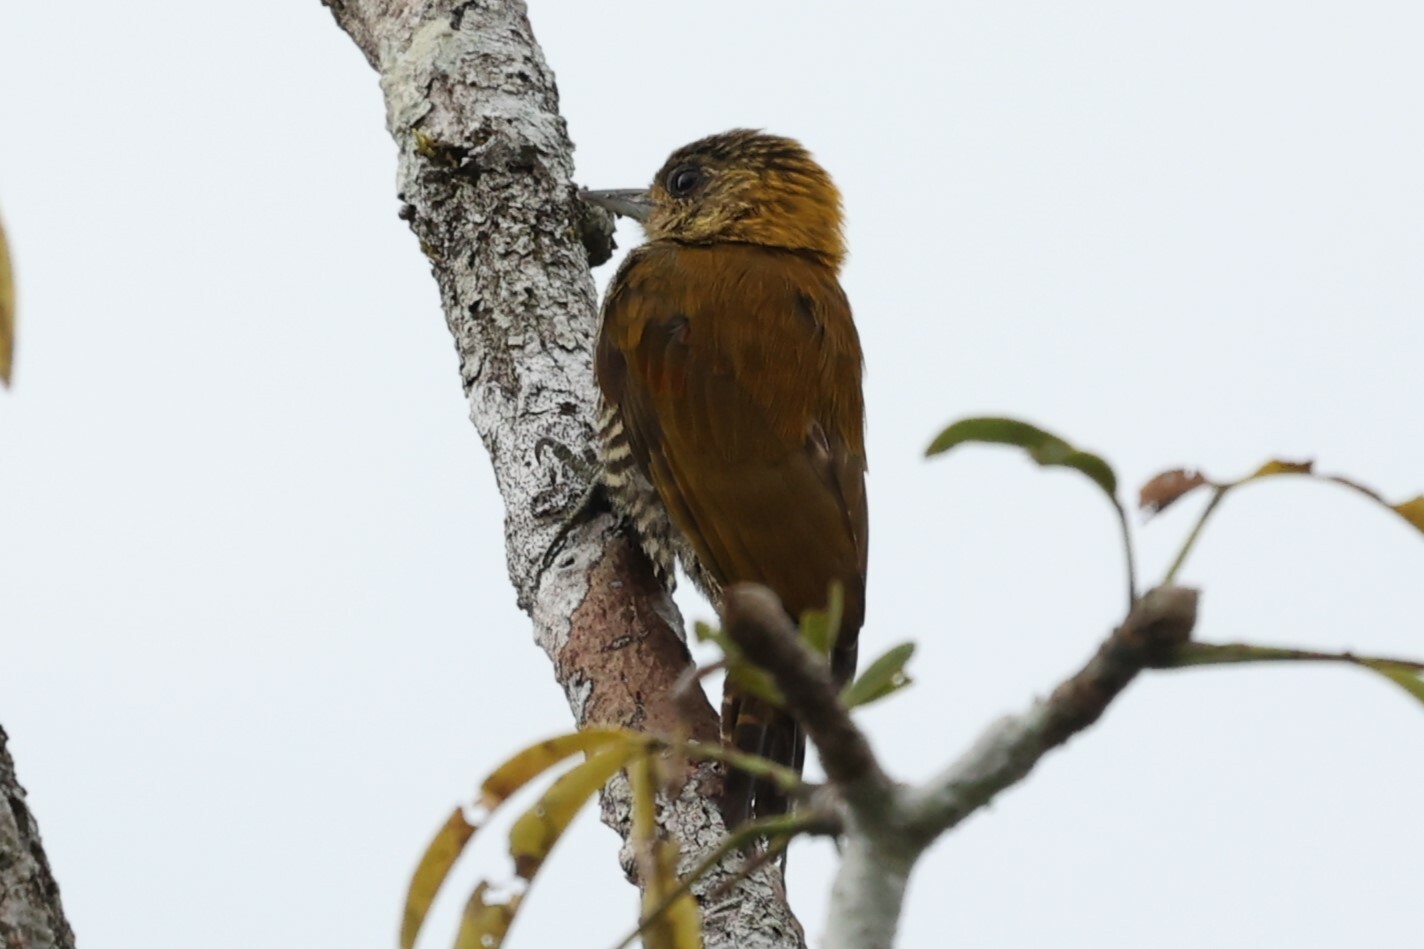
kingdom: Animalia
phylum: Chordata
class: Aves
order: Piciformes
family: Picidae
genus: Veniliornis
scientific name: Veniliornis affinis
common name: Red-stained woodpecker
